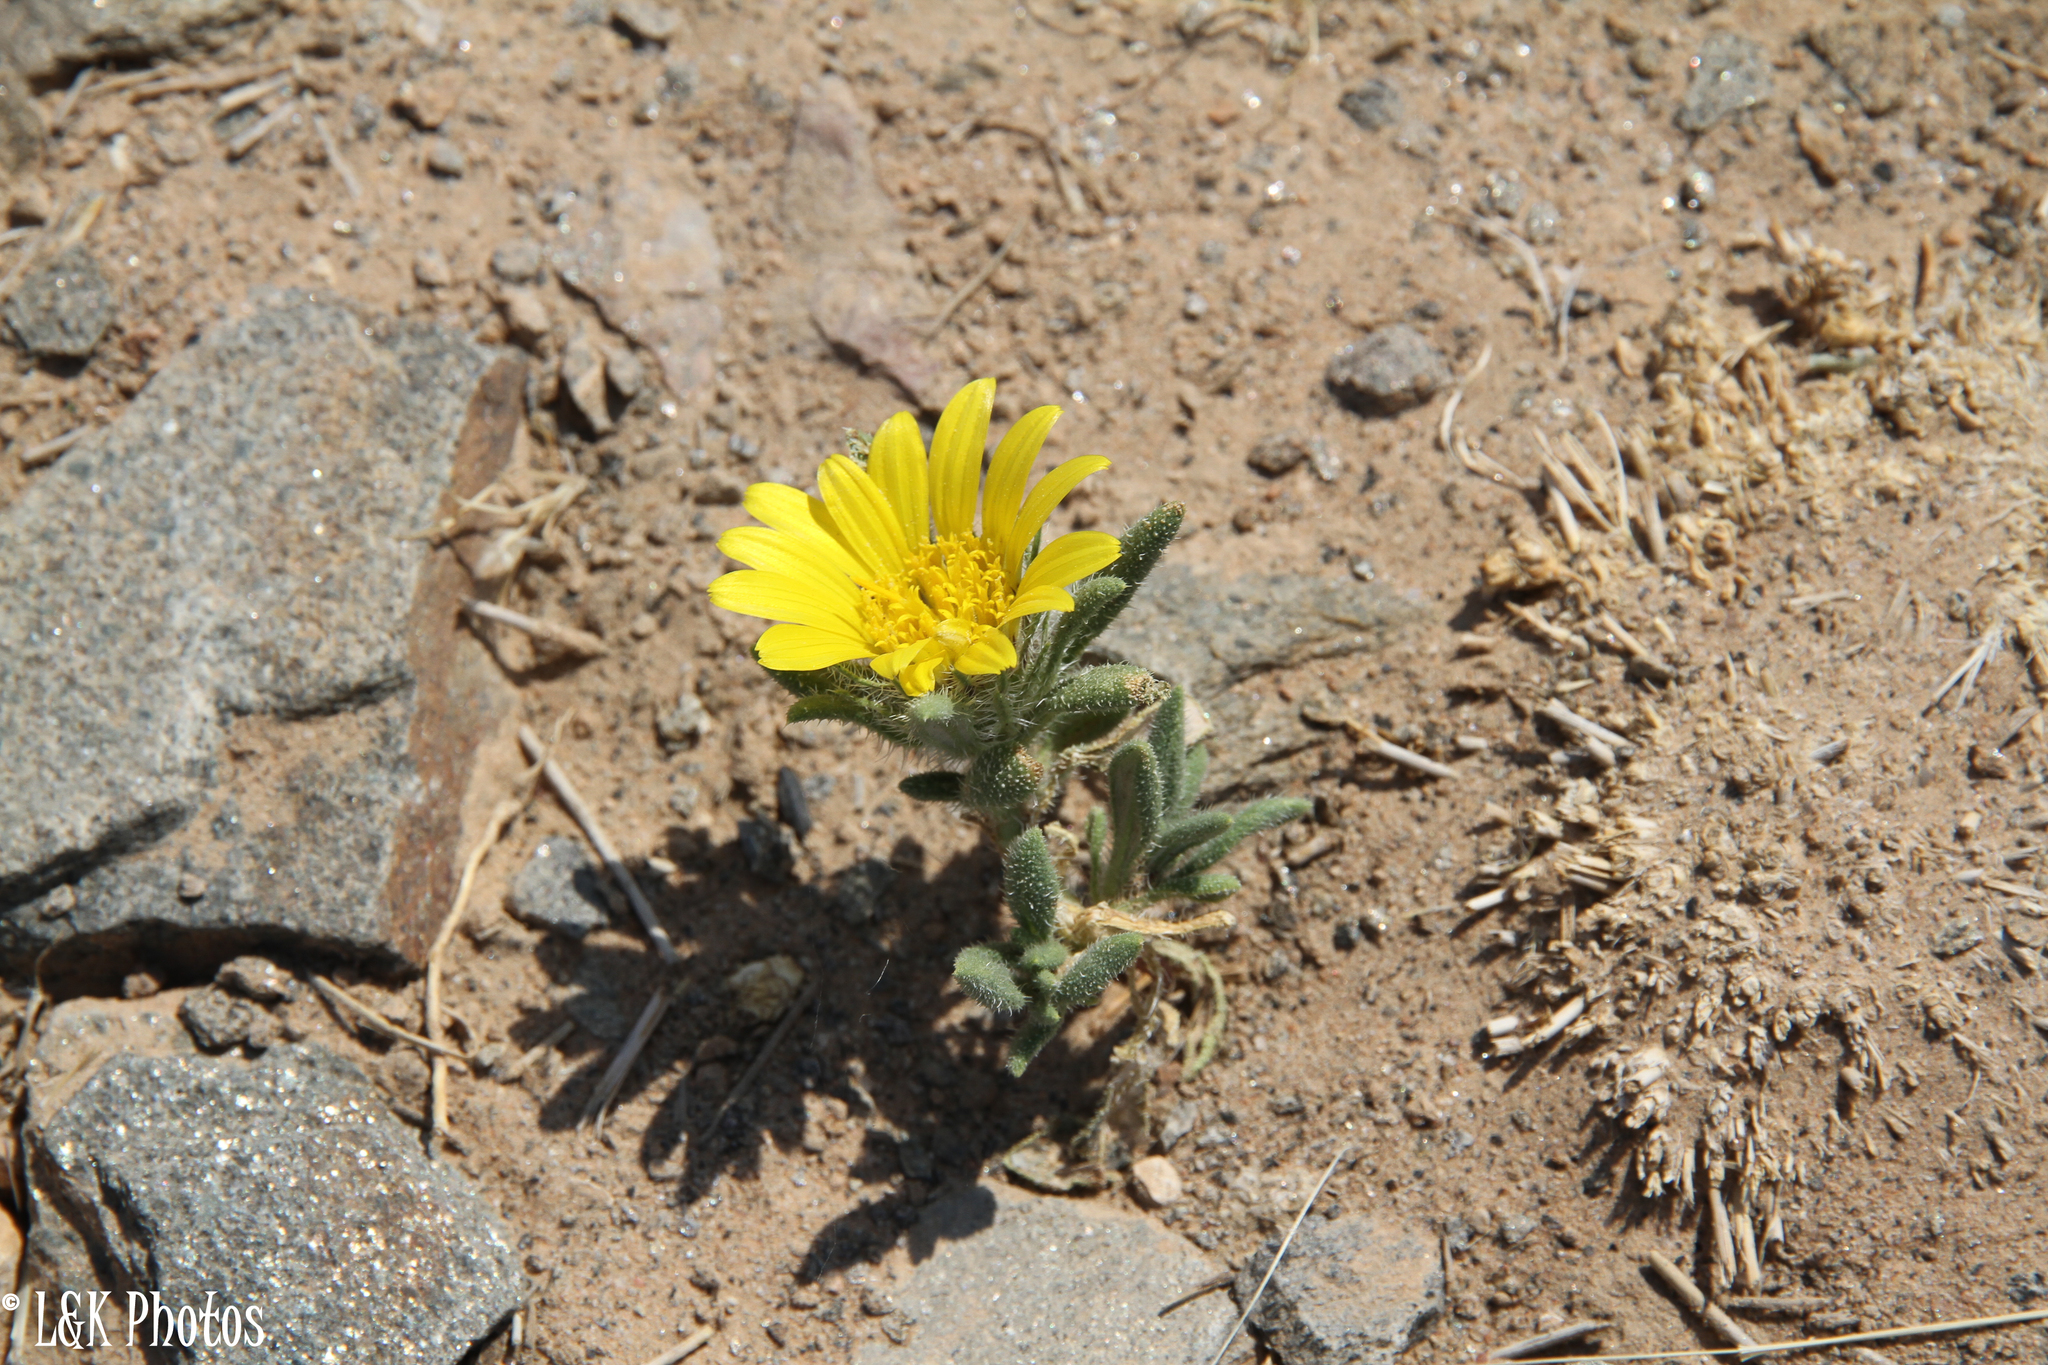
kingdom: Plantae
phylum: Tracheophyta
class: Magnoliopsida
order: Asterales
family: Asteraceae
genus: Roessleria
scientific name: Roessleria gazanioides
